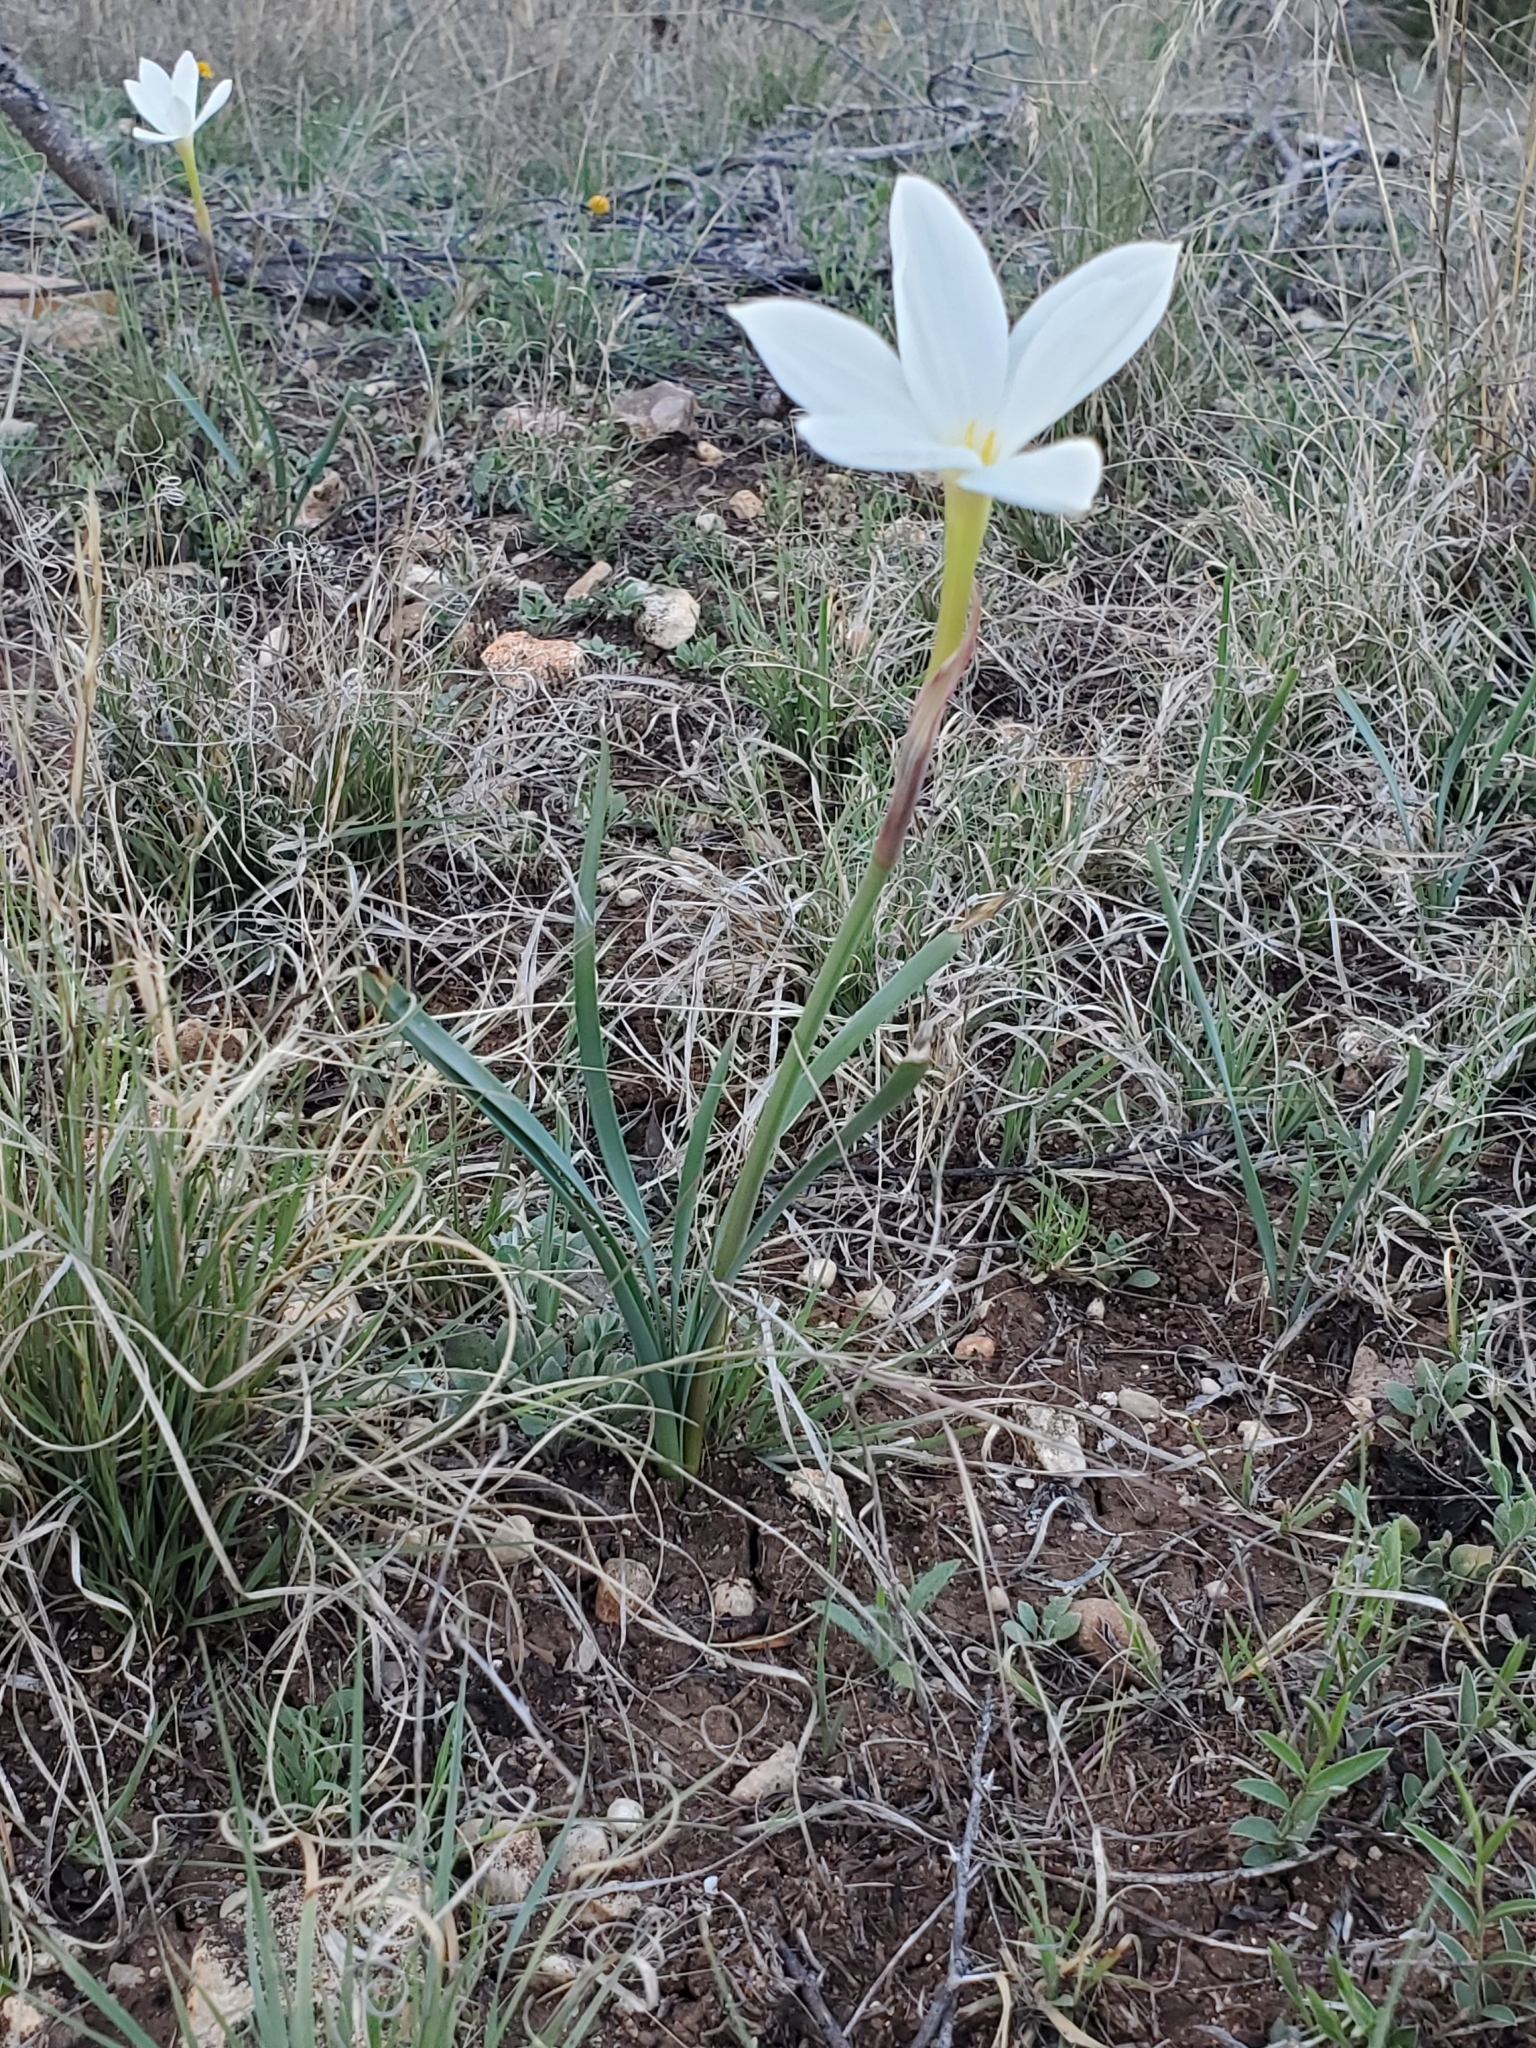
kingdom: Plantae
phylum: Tracheophyta
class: Liliopsida
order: Asparagales
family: Amaryllidaceae
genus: Zephyranthes
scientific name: Zephyranthes drummondii
